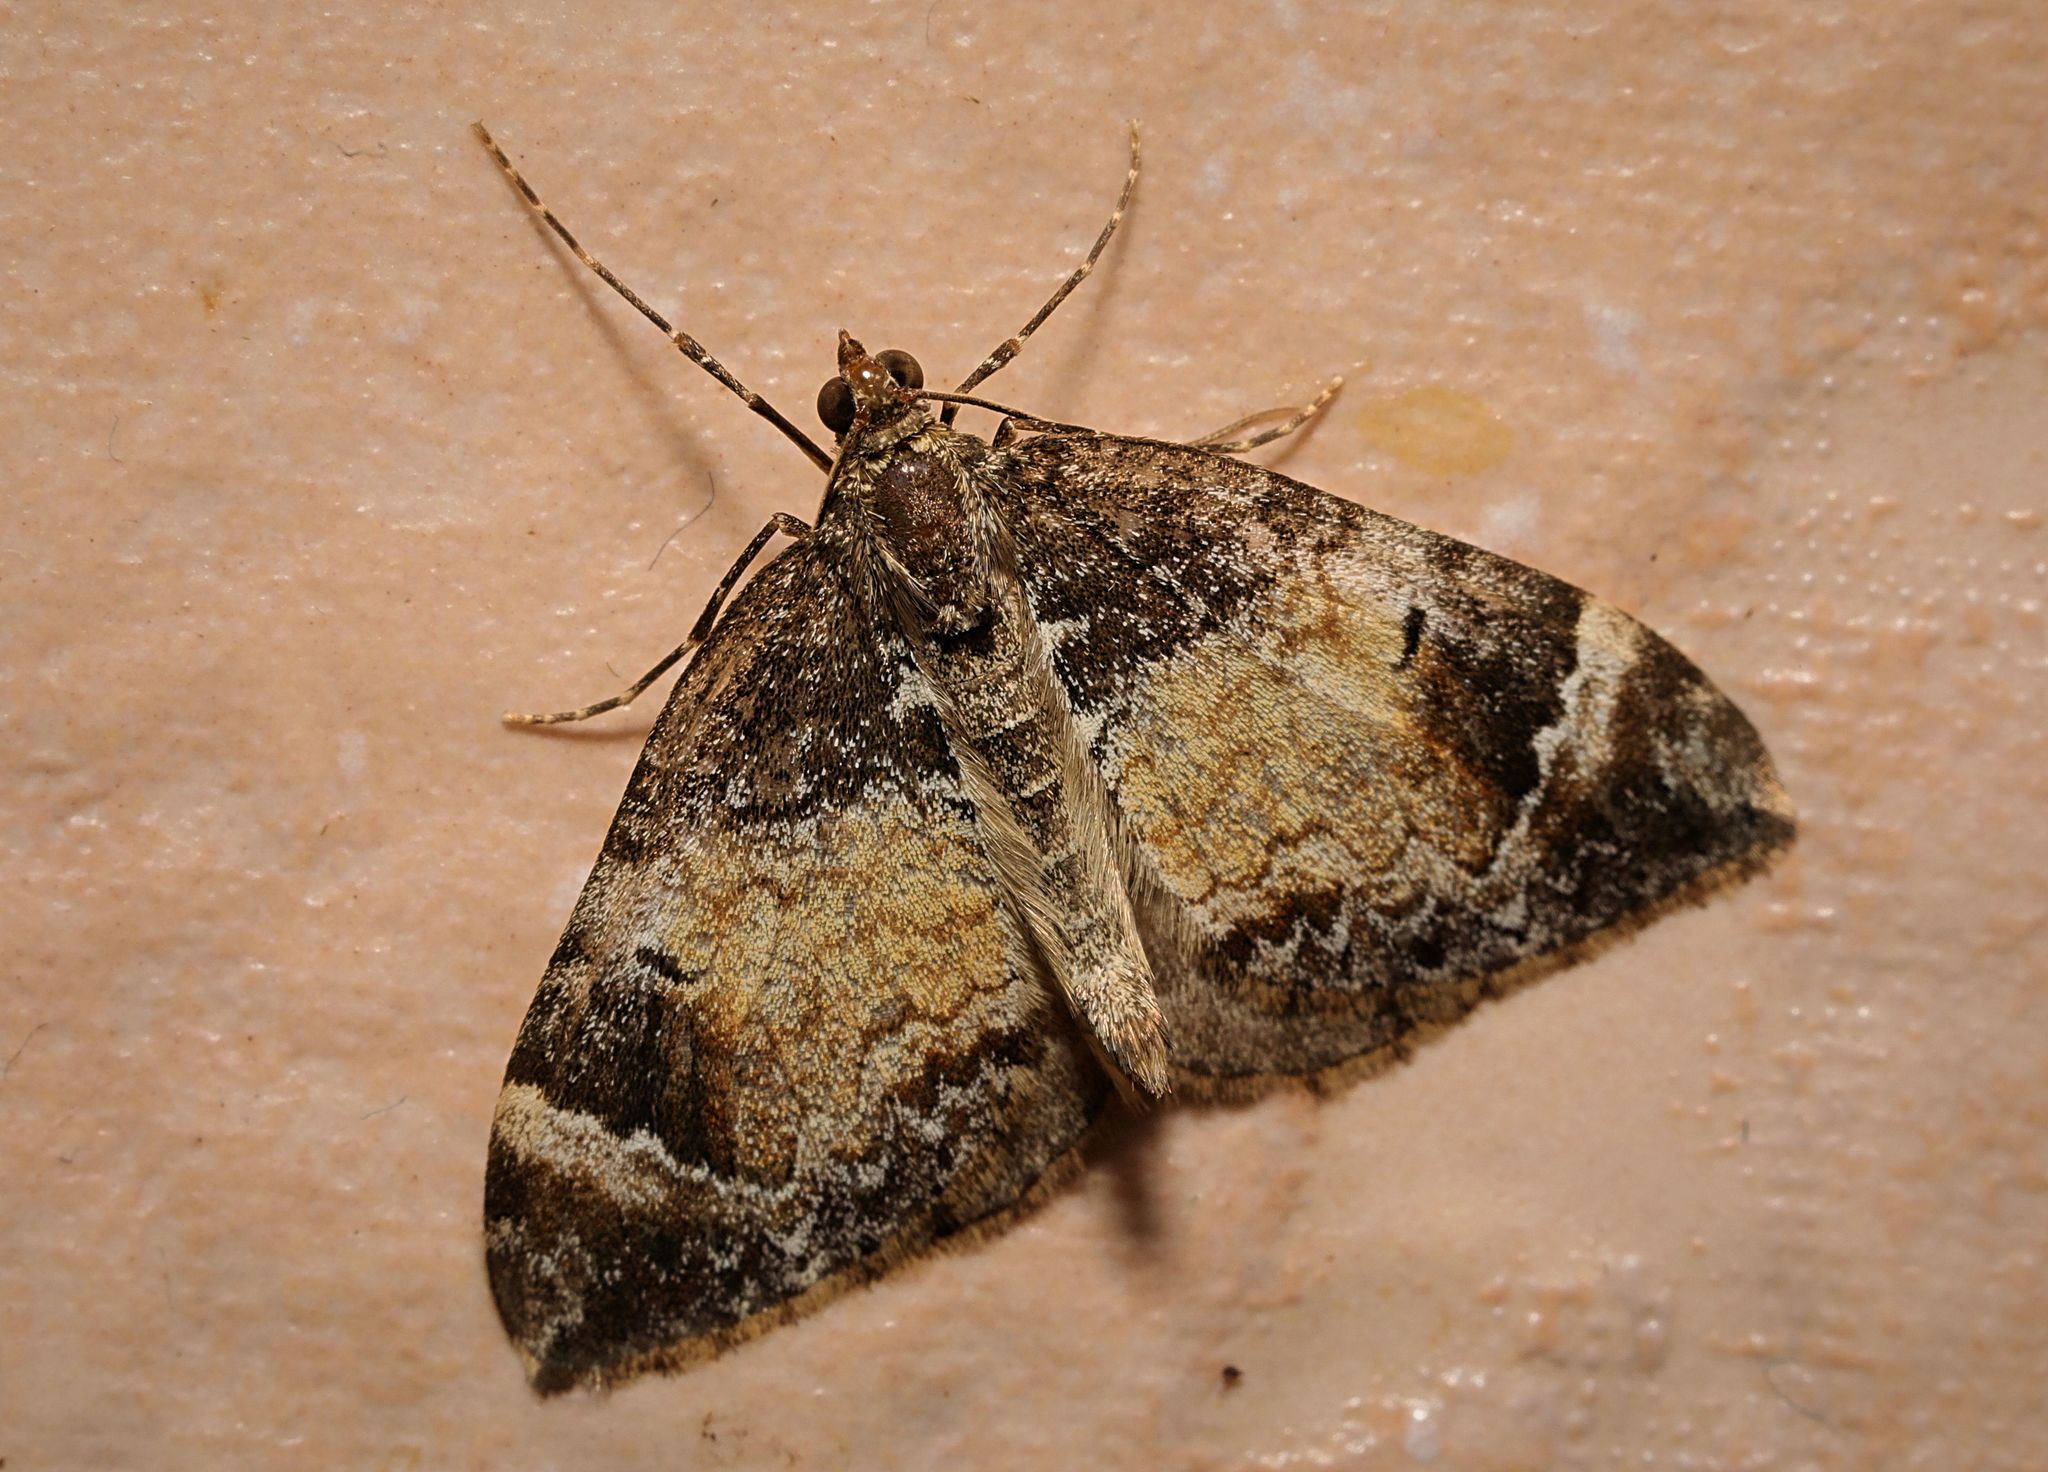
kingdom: Animalia
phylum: Arthropoda
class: Insecta
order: Lepidoptera
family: Geometridae
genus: Dysstroma
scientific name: Dysstroma truncata
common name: Common marbled carpet
